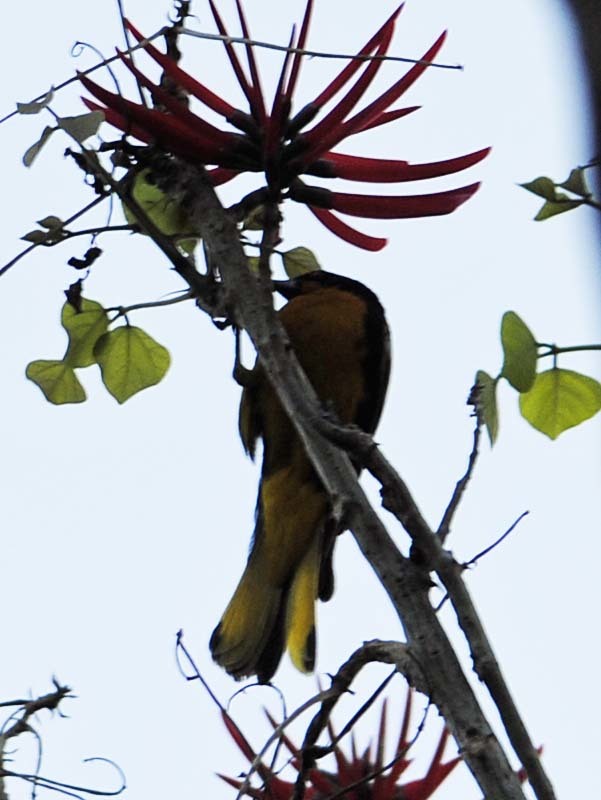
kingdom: Animalia
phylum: Chordata
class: Aves
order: Passeriformes
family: Icteridae
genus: Icterus
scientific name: Icterus abeillei
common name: Black-backed oriole
